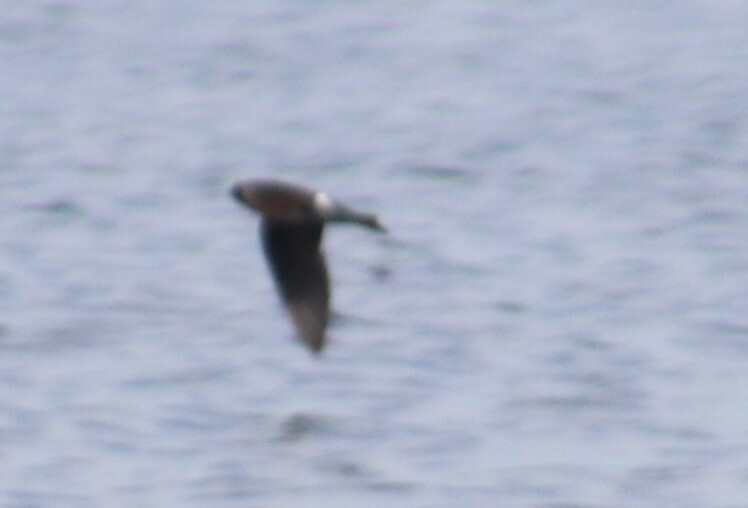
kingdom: Animalia
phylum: Chordata
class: Aves
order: Passeriformes
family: Hirundinidae
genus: Tachycineta
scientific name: Tachycineta bicolor
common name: Tree swallow
